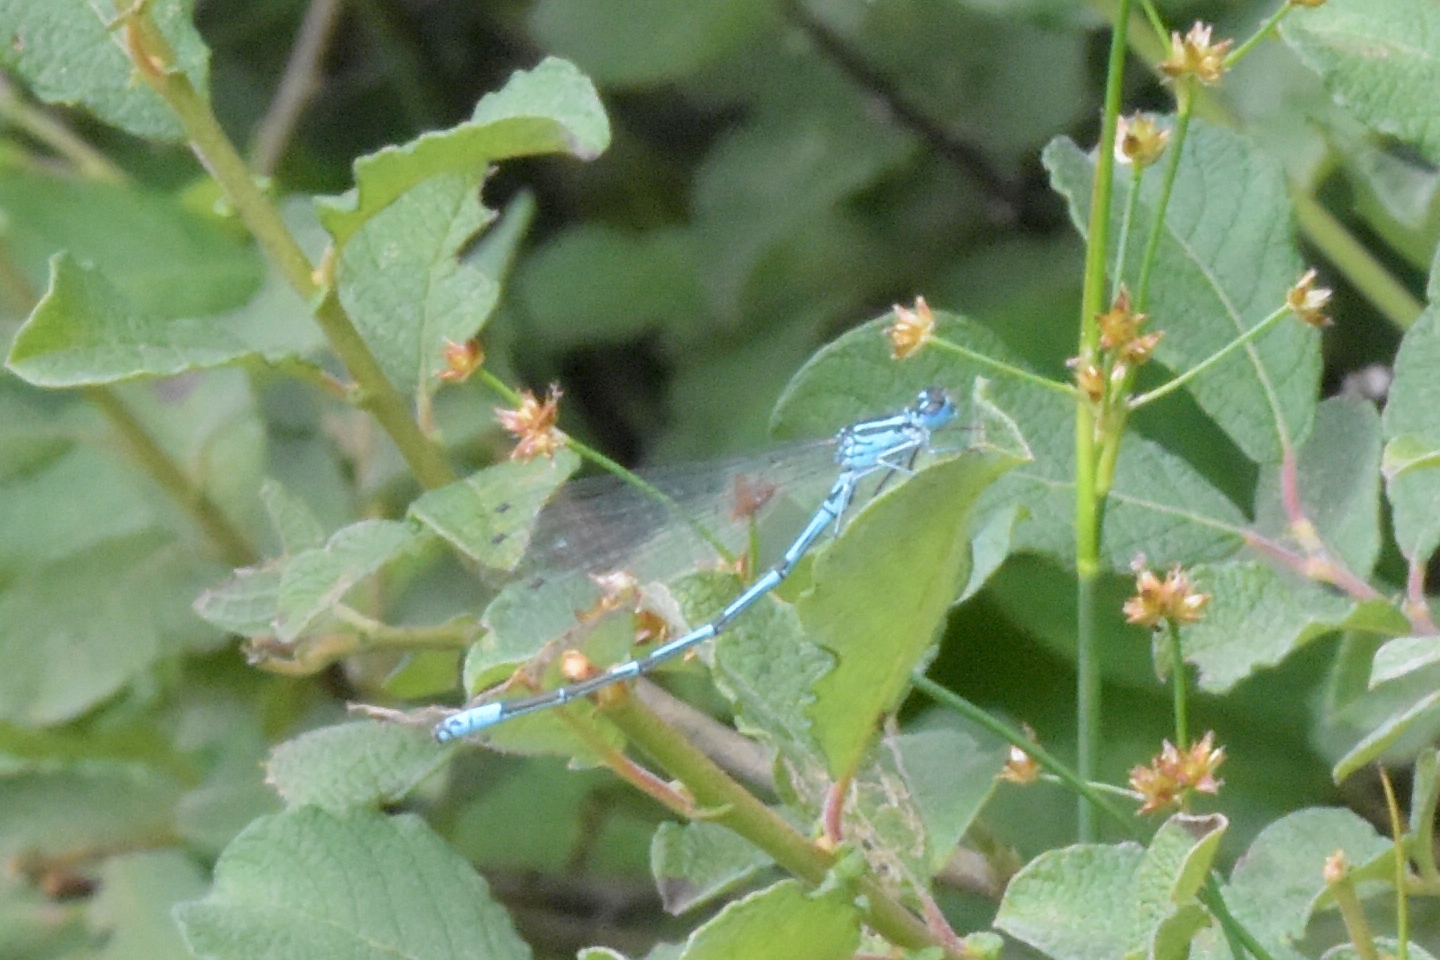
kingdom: Animalia
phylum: Arthropoda
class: Insecta
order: Odonata
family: Coenagrionidae
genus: Coenagrion
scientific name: Coenagrion puella
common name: Azure damselfly
